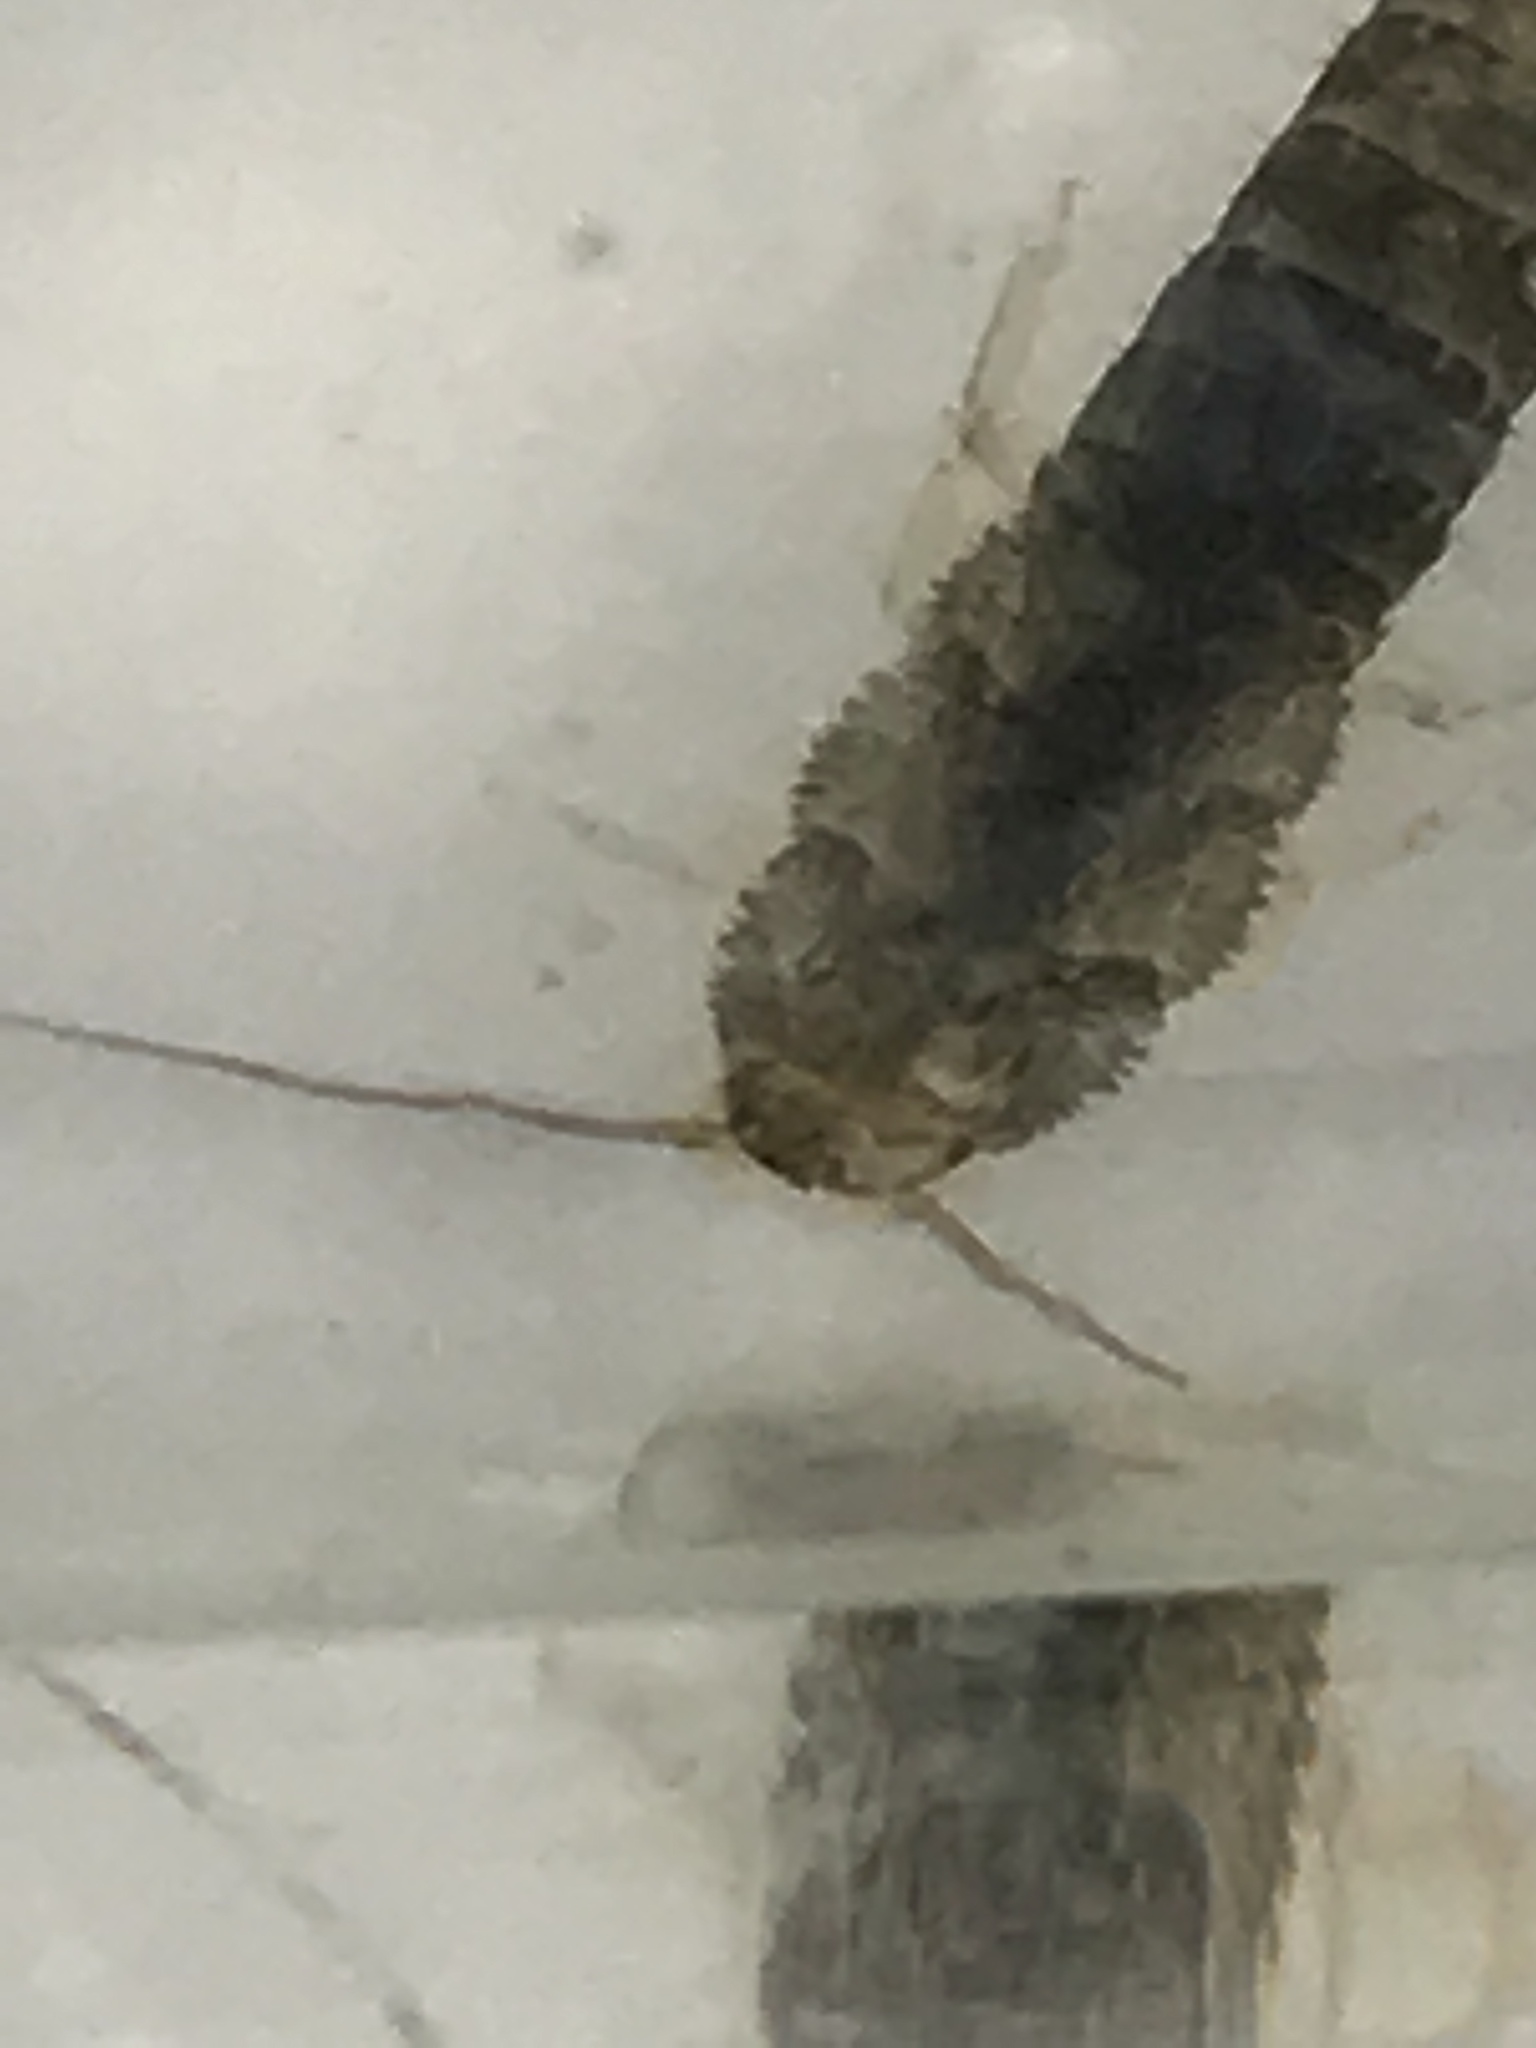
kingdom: Animalia
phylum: Arthropoda
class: Insecta
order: Zygentoma
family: Lepismatidae
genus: Ctenolepisma
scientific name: Ctenolepisma longicaudatum
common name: Silverfish
